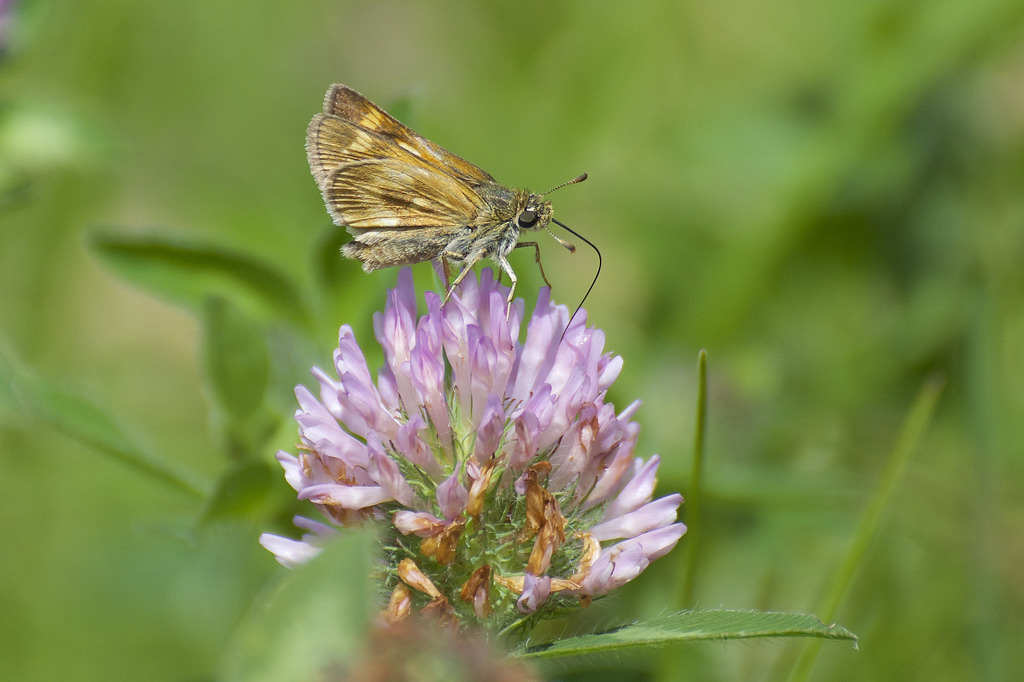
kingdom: Animalia
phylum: Arthropoda
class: Insecta
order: Lepidoptera
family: Hesperiidae
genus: Polites
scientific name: Polites mystic
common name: Long dash
